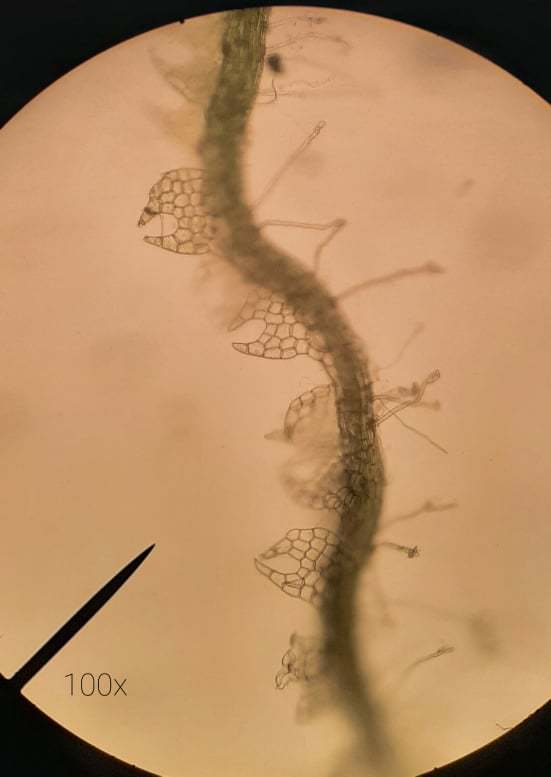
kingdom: Plantae
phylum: Marchantiophyta
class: Jungermanniopsida
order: Jungermanniales
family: Cephaloziaceae
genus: Fuscocephaloziopsis
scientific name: Fuscocephaloziopsis connivens
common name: Forcipated pincerwort
